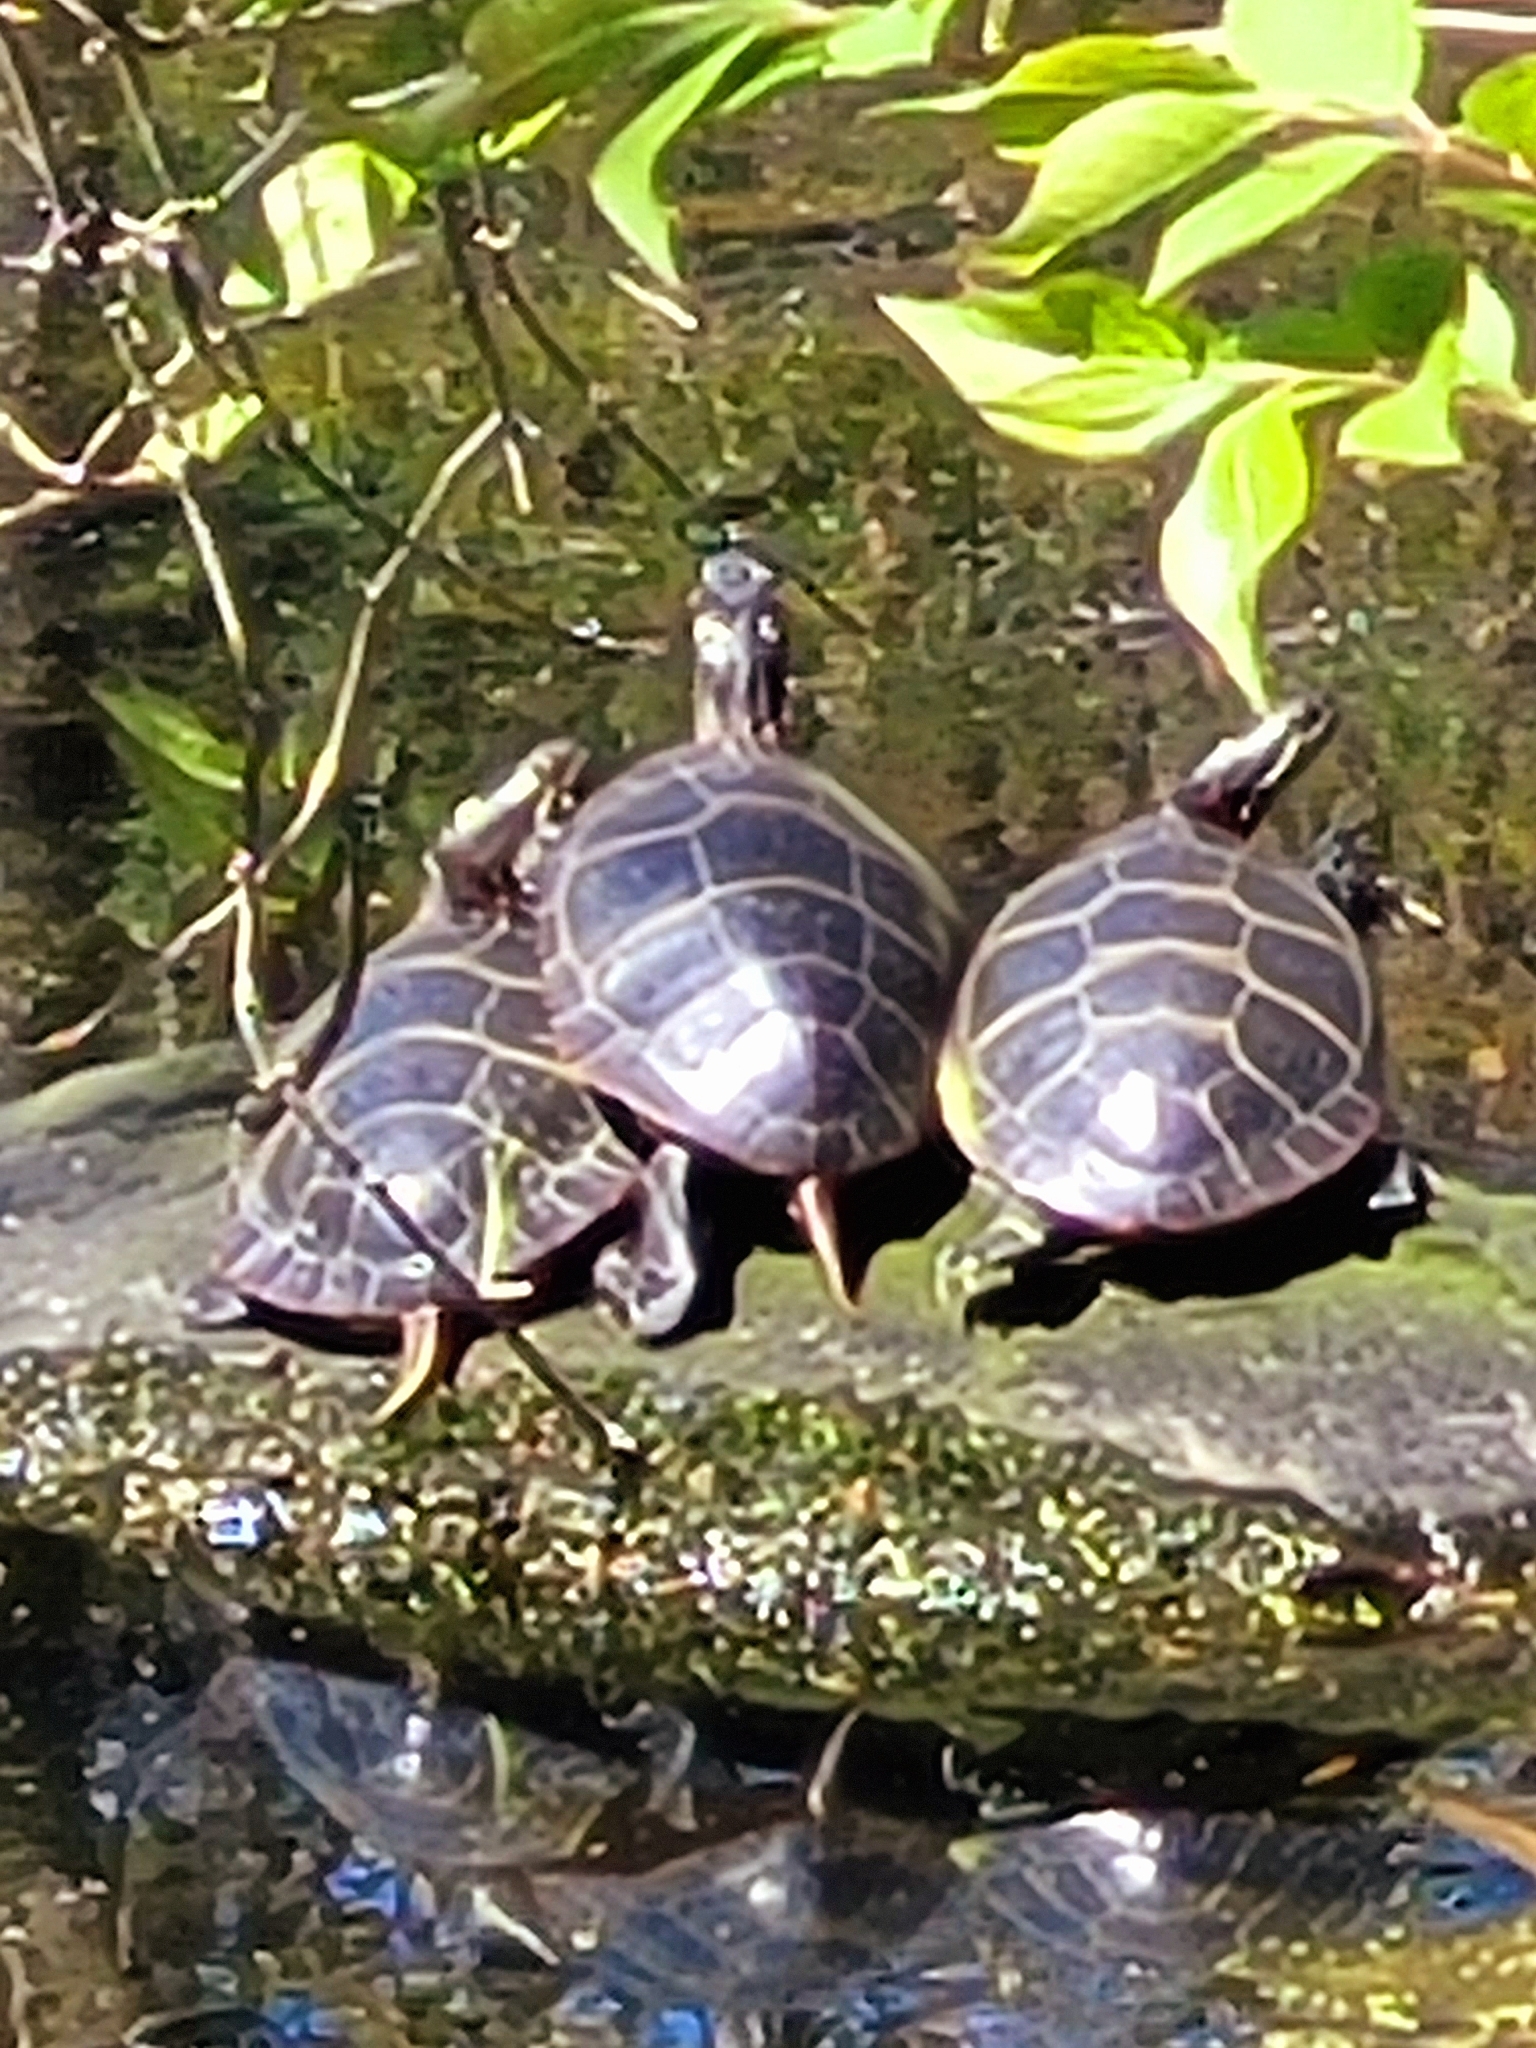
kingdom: Animalia
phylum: Chordata
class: Testudines
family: Emydidae
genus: Chrysemys
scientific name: Chrysemys picta
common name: Painted turtle
